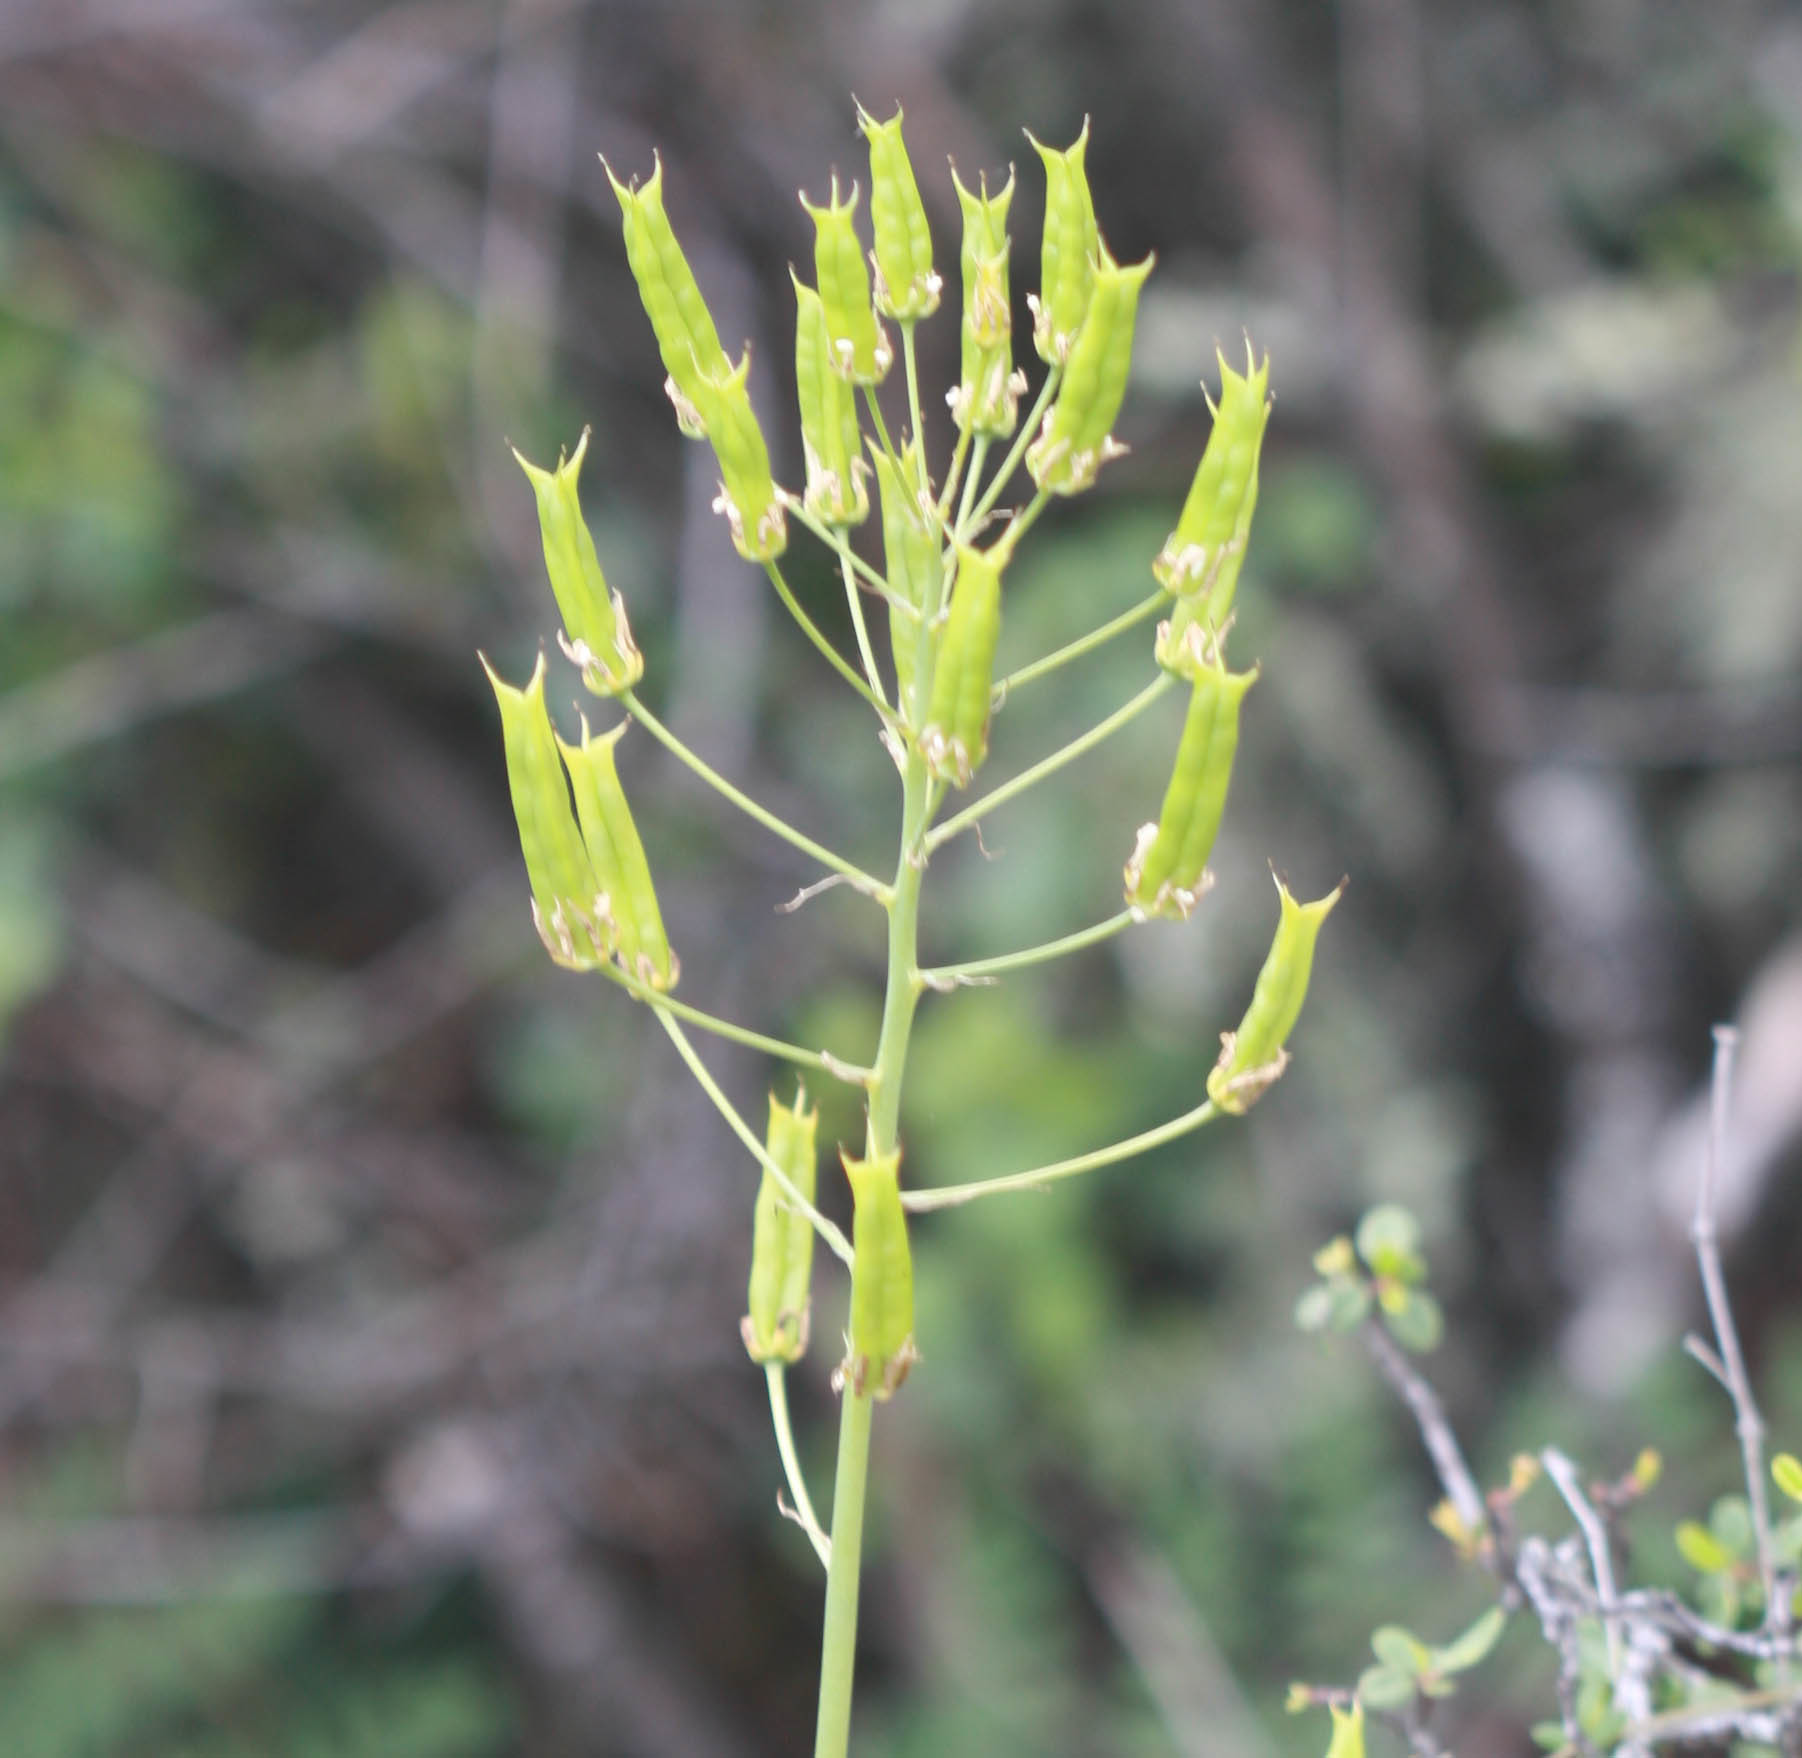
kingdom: Plantae
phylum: Tracheophyta
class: Liliopsida
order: Liliales
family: Melanthiaceae
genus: Toxicoscordion
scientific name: Toxicoscordion fremontii
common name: Fremont's death camas
